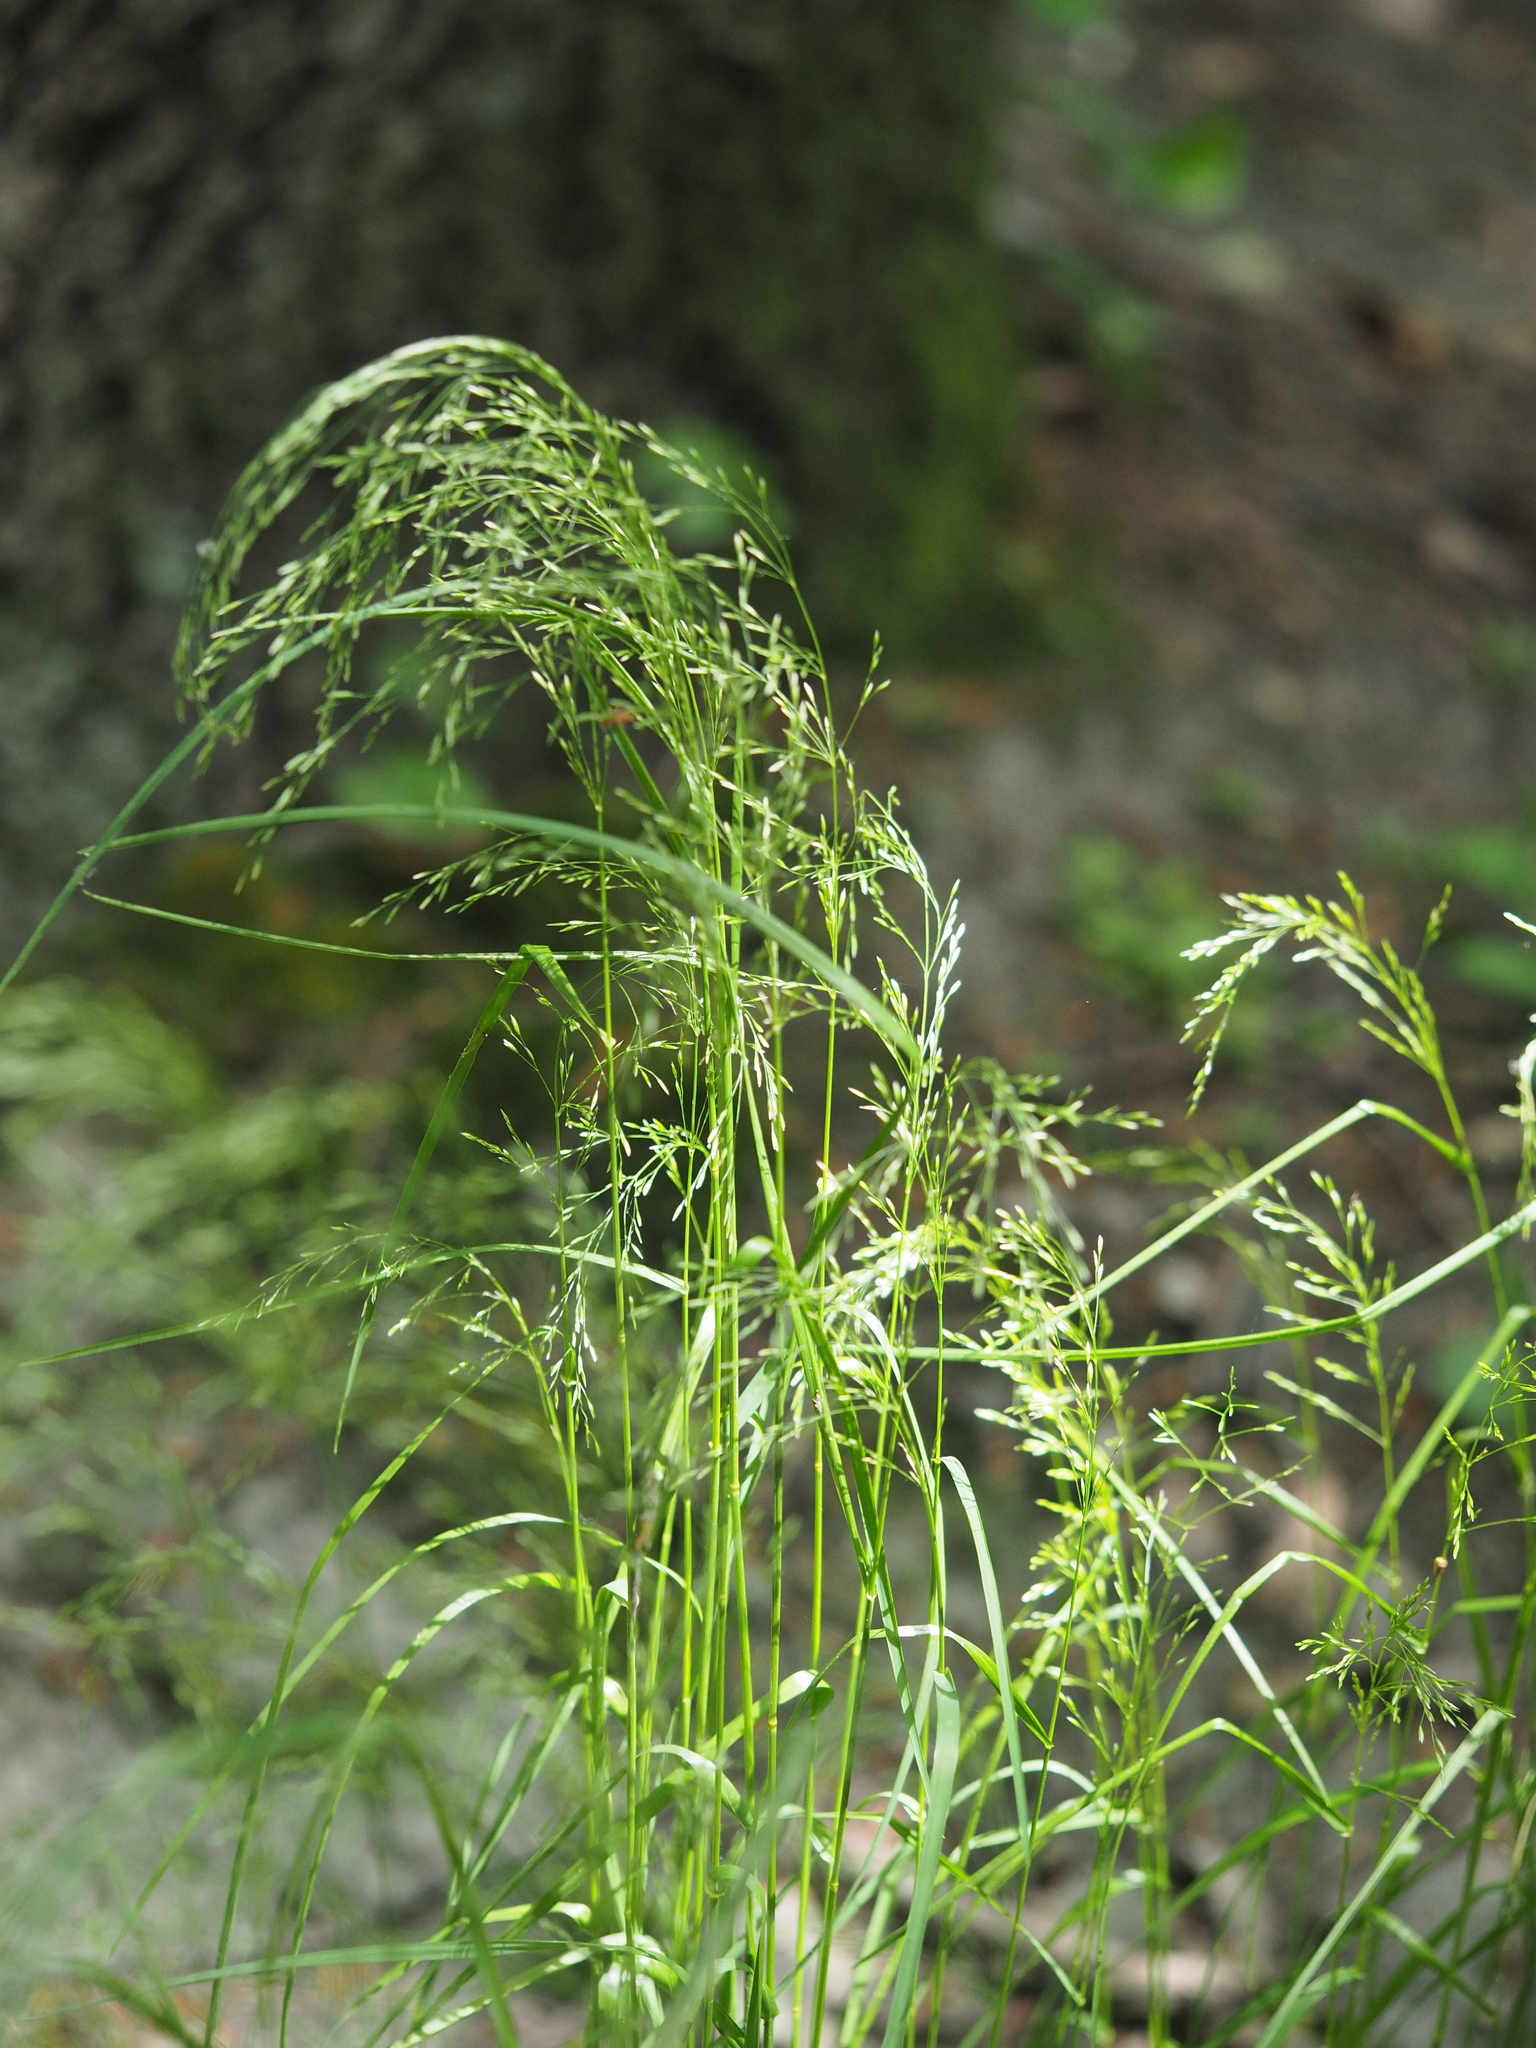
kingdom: Plantae
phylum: Tracheophyta
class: Liliopsida
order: Poales
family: Poaceae
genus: Poa
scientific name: Poa nemoralis
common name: Wood bluegrass
